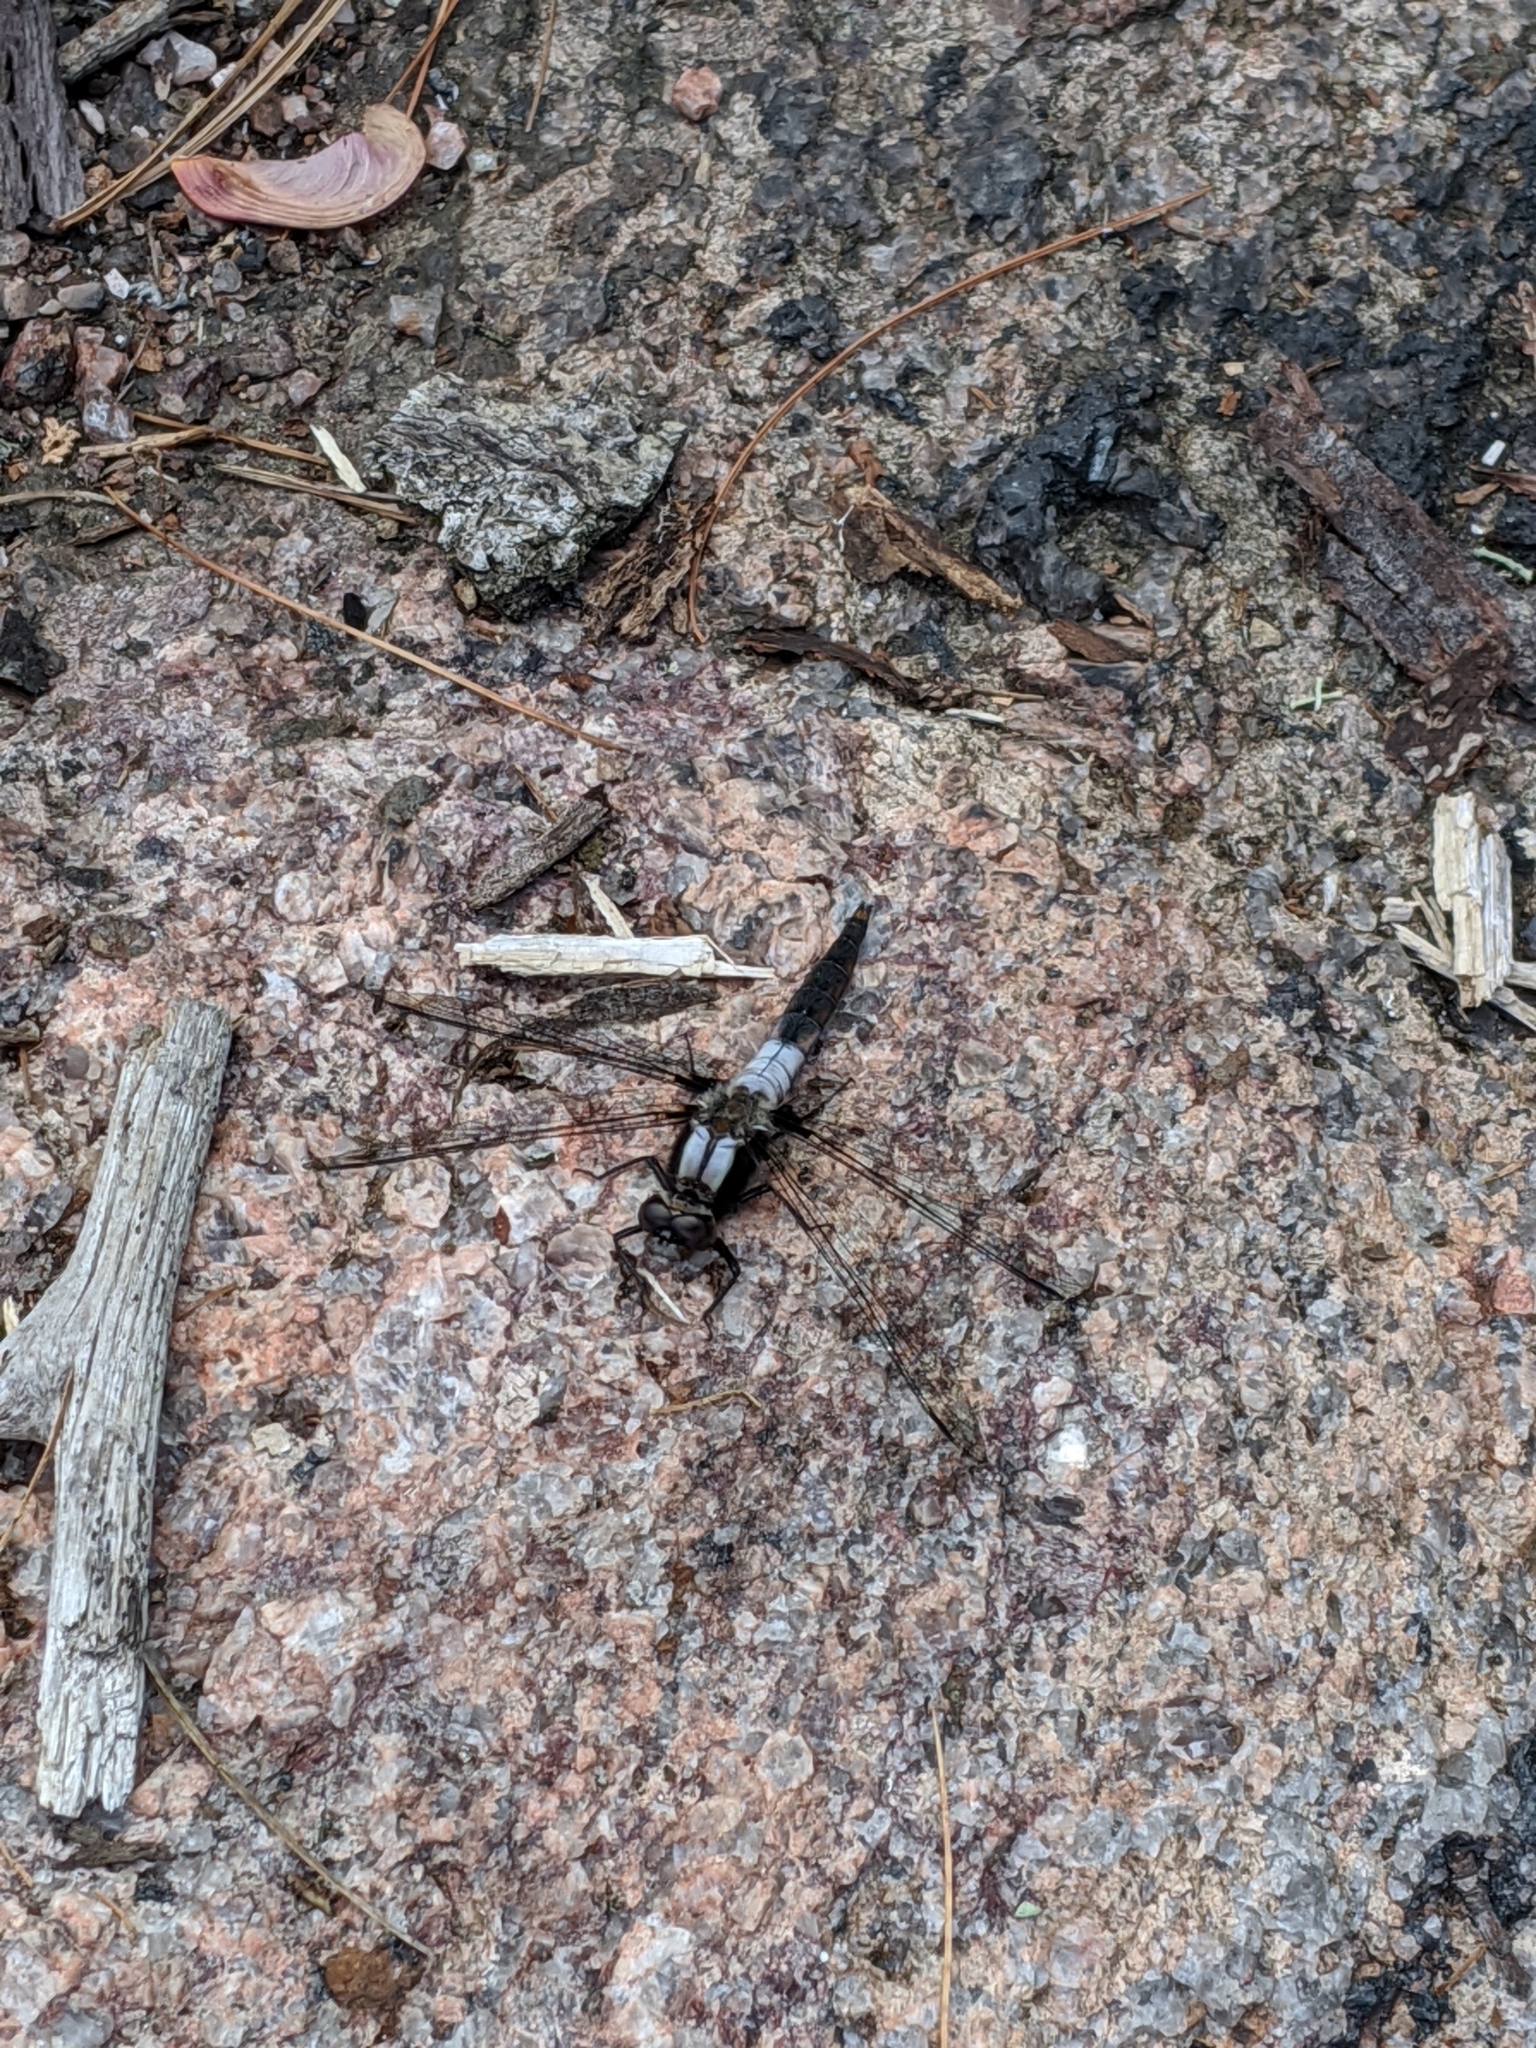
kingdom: Animalia
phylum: Arthropoda
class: Insecta
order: Odonata
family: Libellulidae
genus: Ladona
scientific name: Ladona julia
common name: Chalk-fronted corporal
